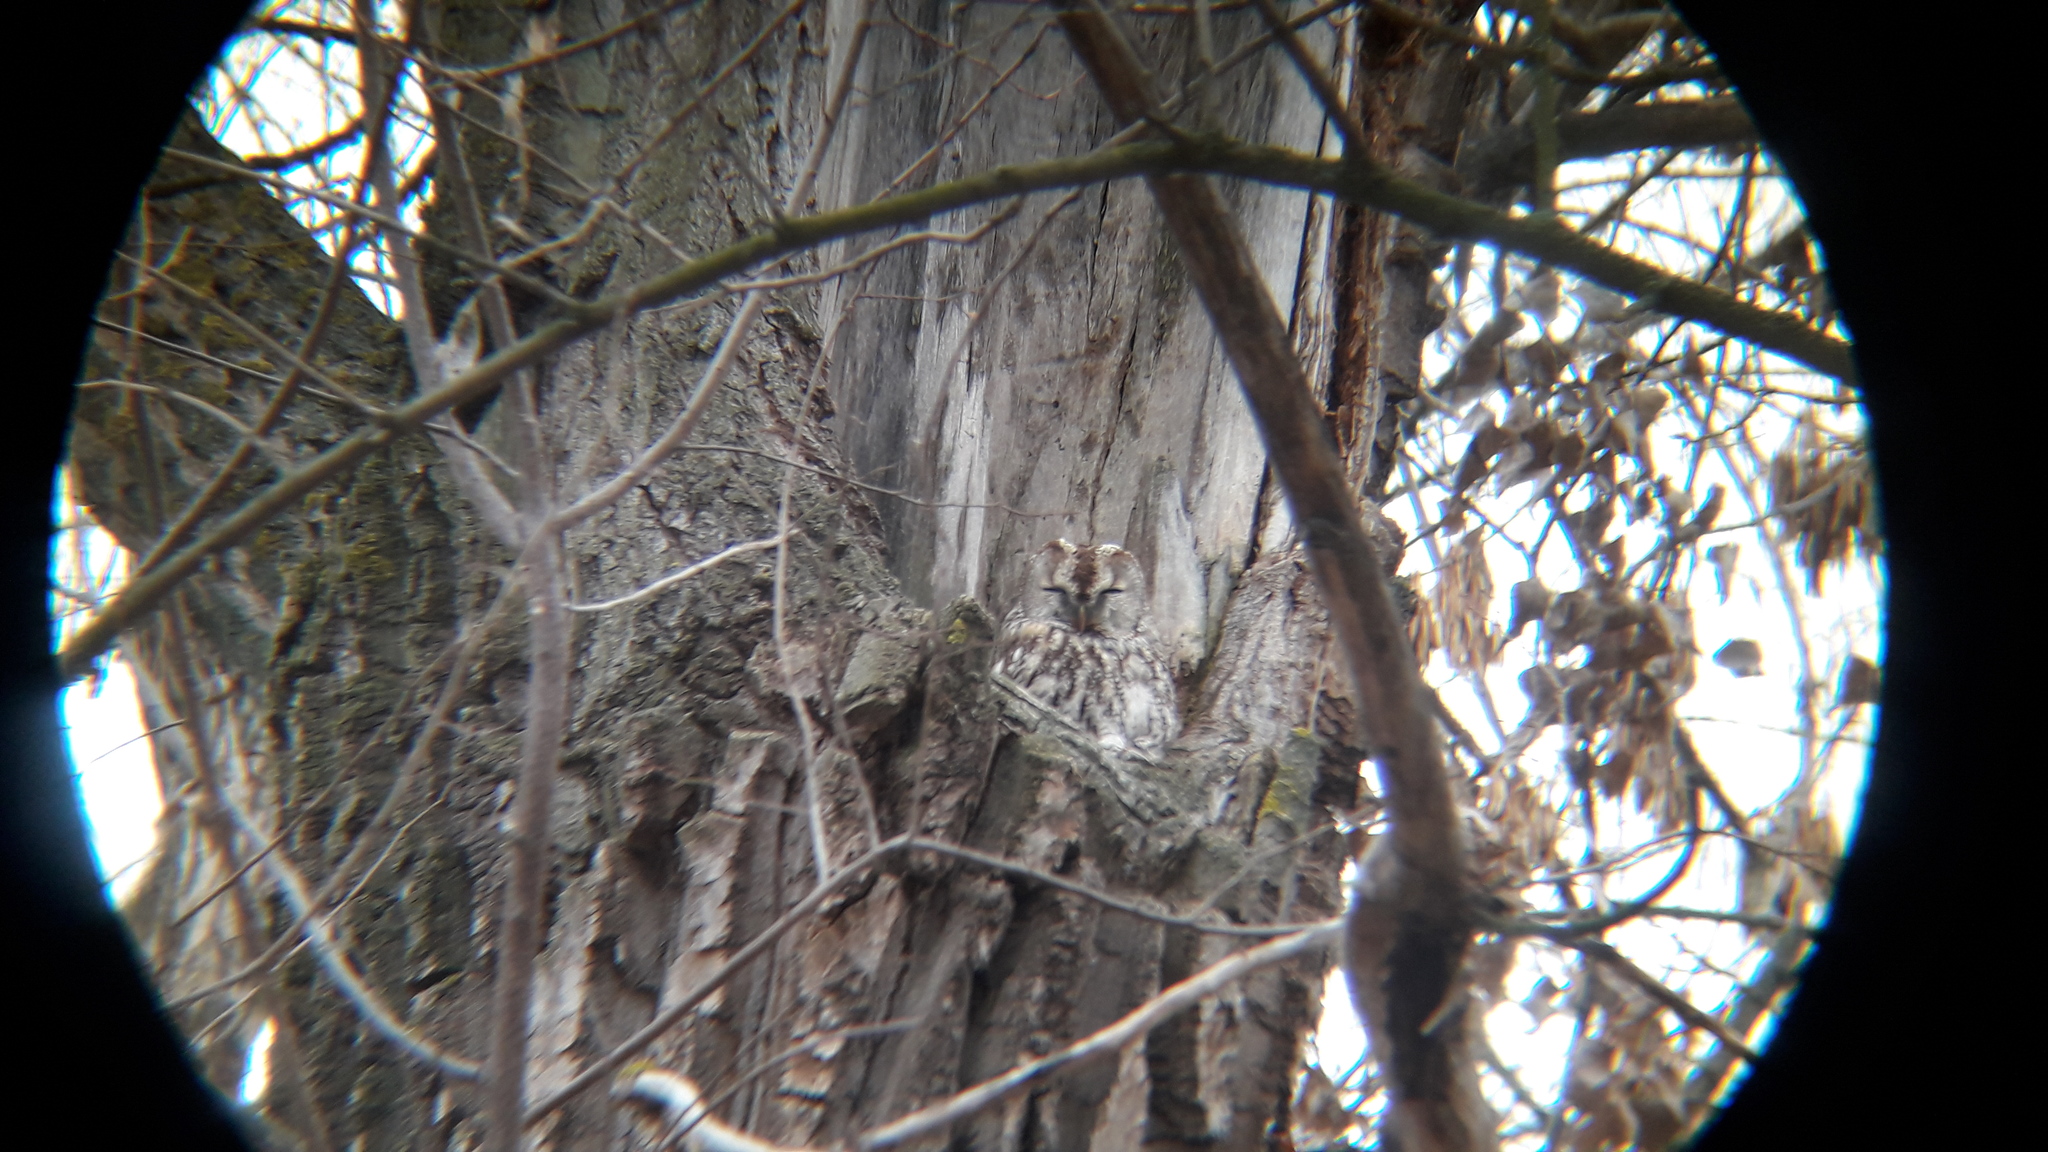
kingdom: Animalia
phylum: Chordata
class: Aves
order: Strigiformes
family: Strigidae
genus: Strix
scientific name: Strix aluco
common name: Tawny owl
